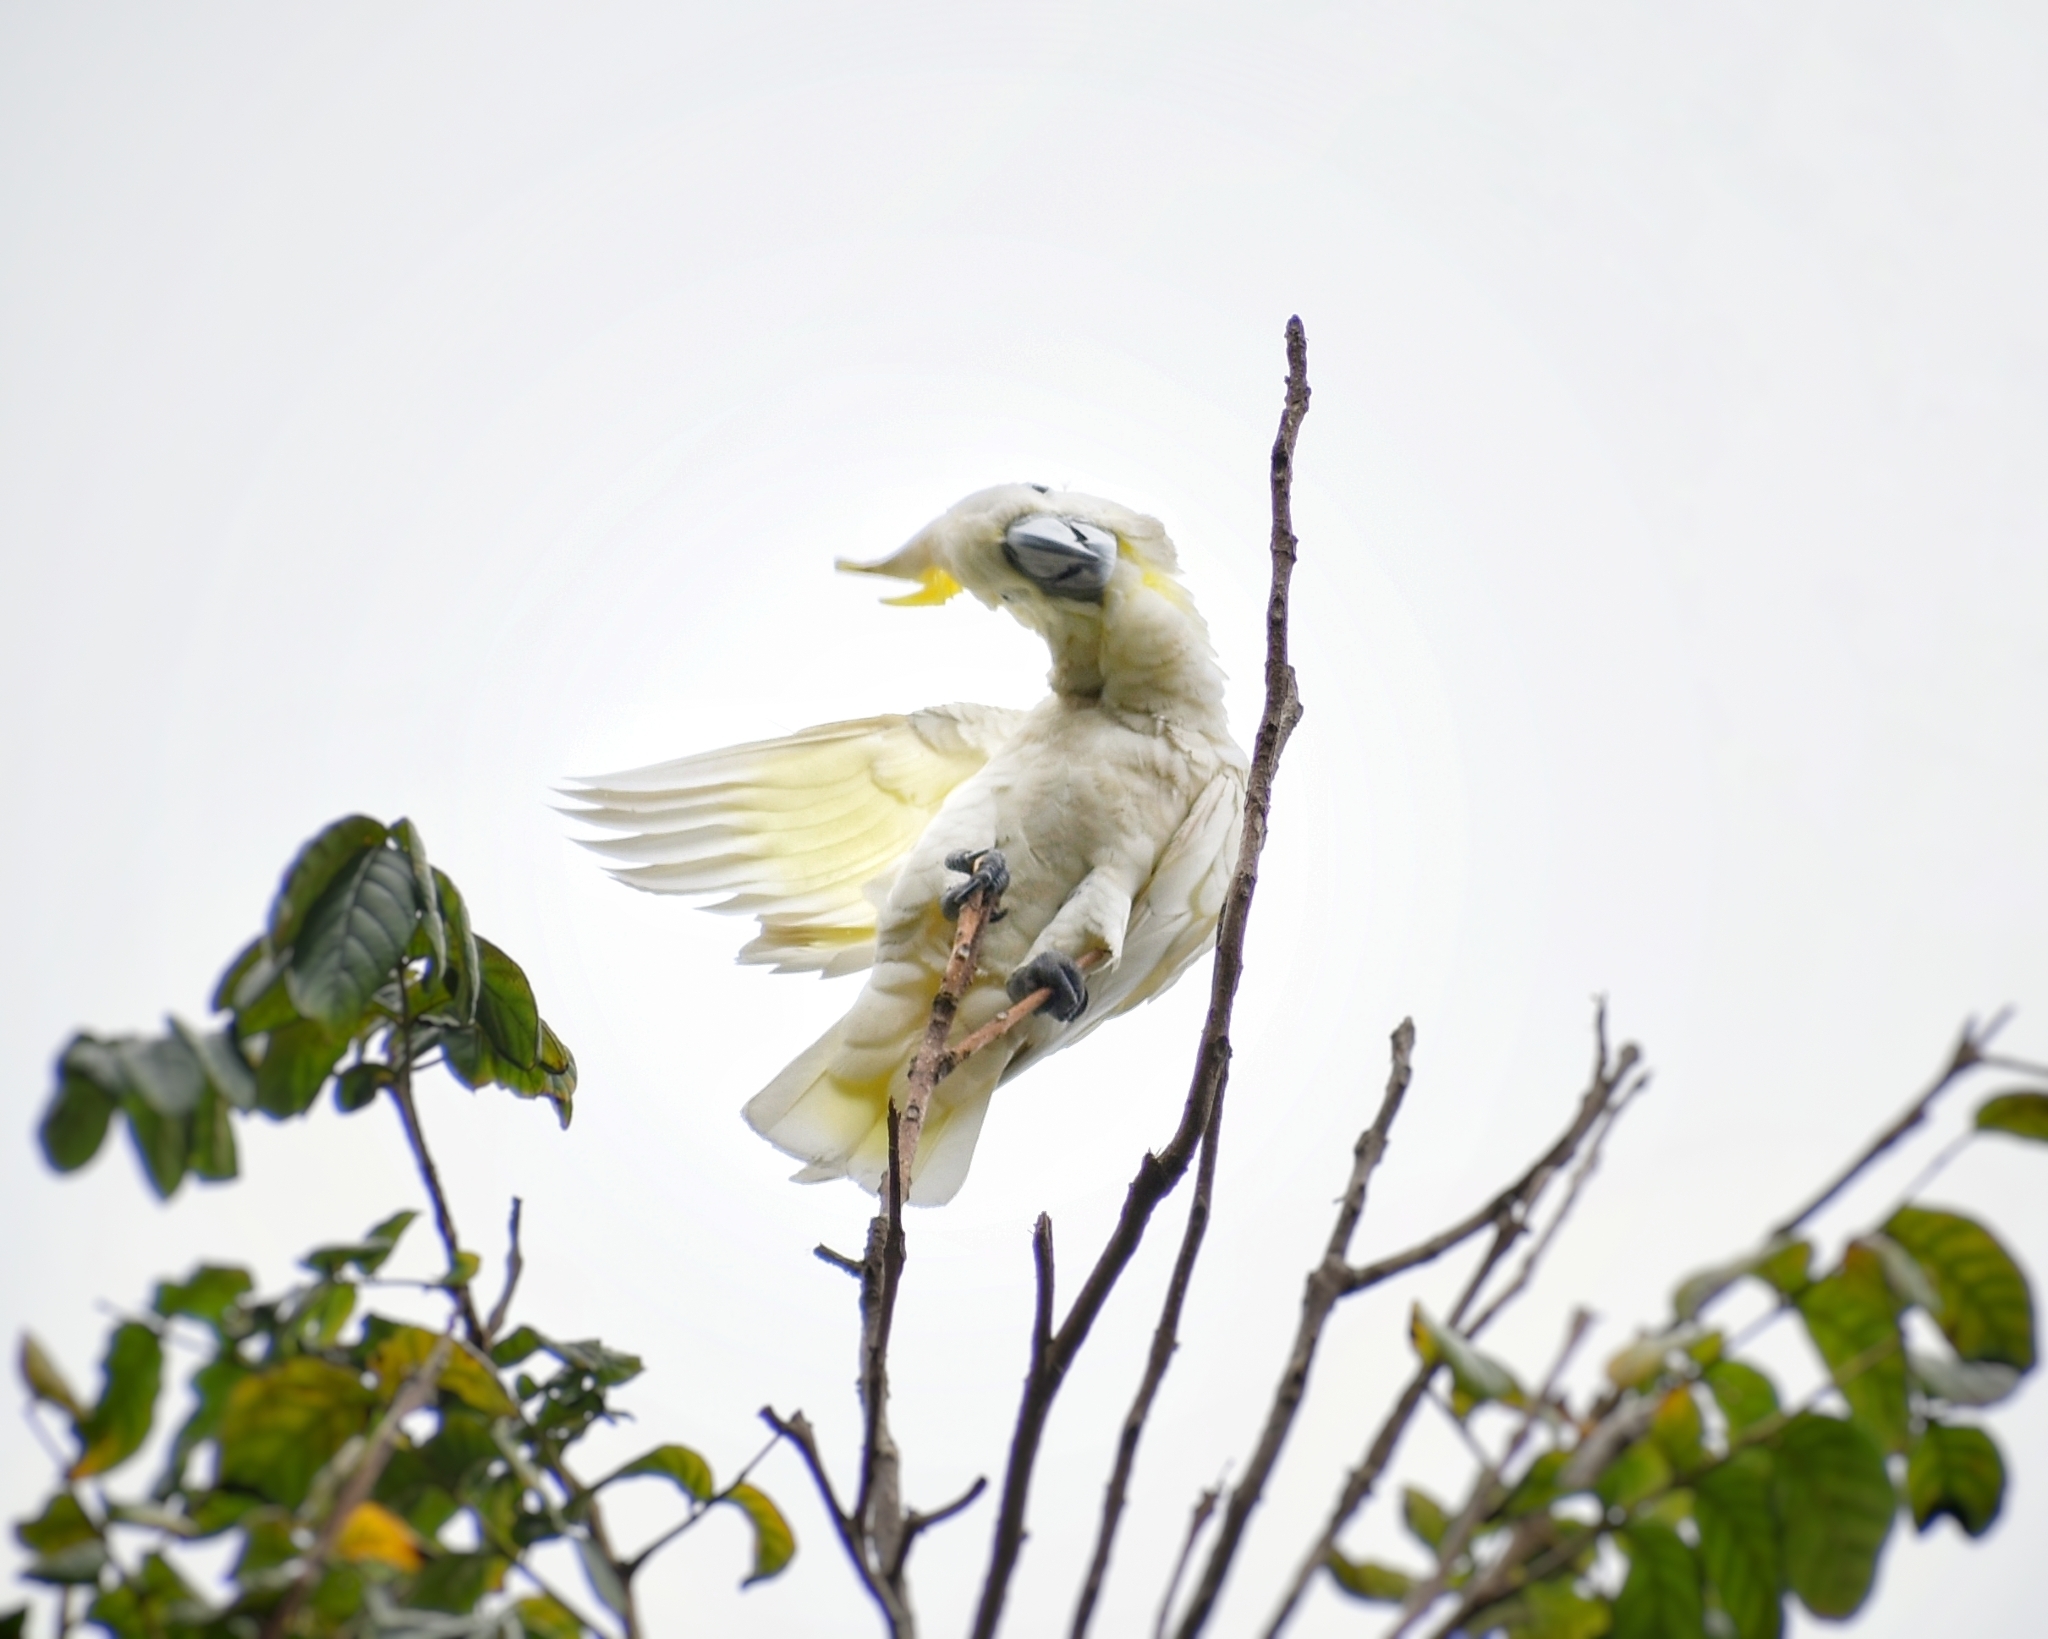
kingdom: Animalia
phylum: Chordata
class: Aves
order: Psittaciformes
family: Psittacidae
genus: Cacatua
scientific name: Cacatua sulphurea
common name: Yellow-crested cockatoo
